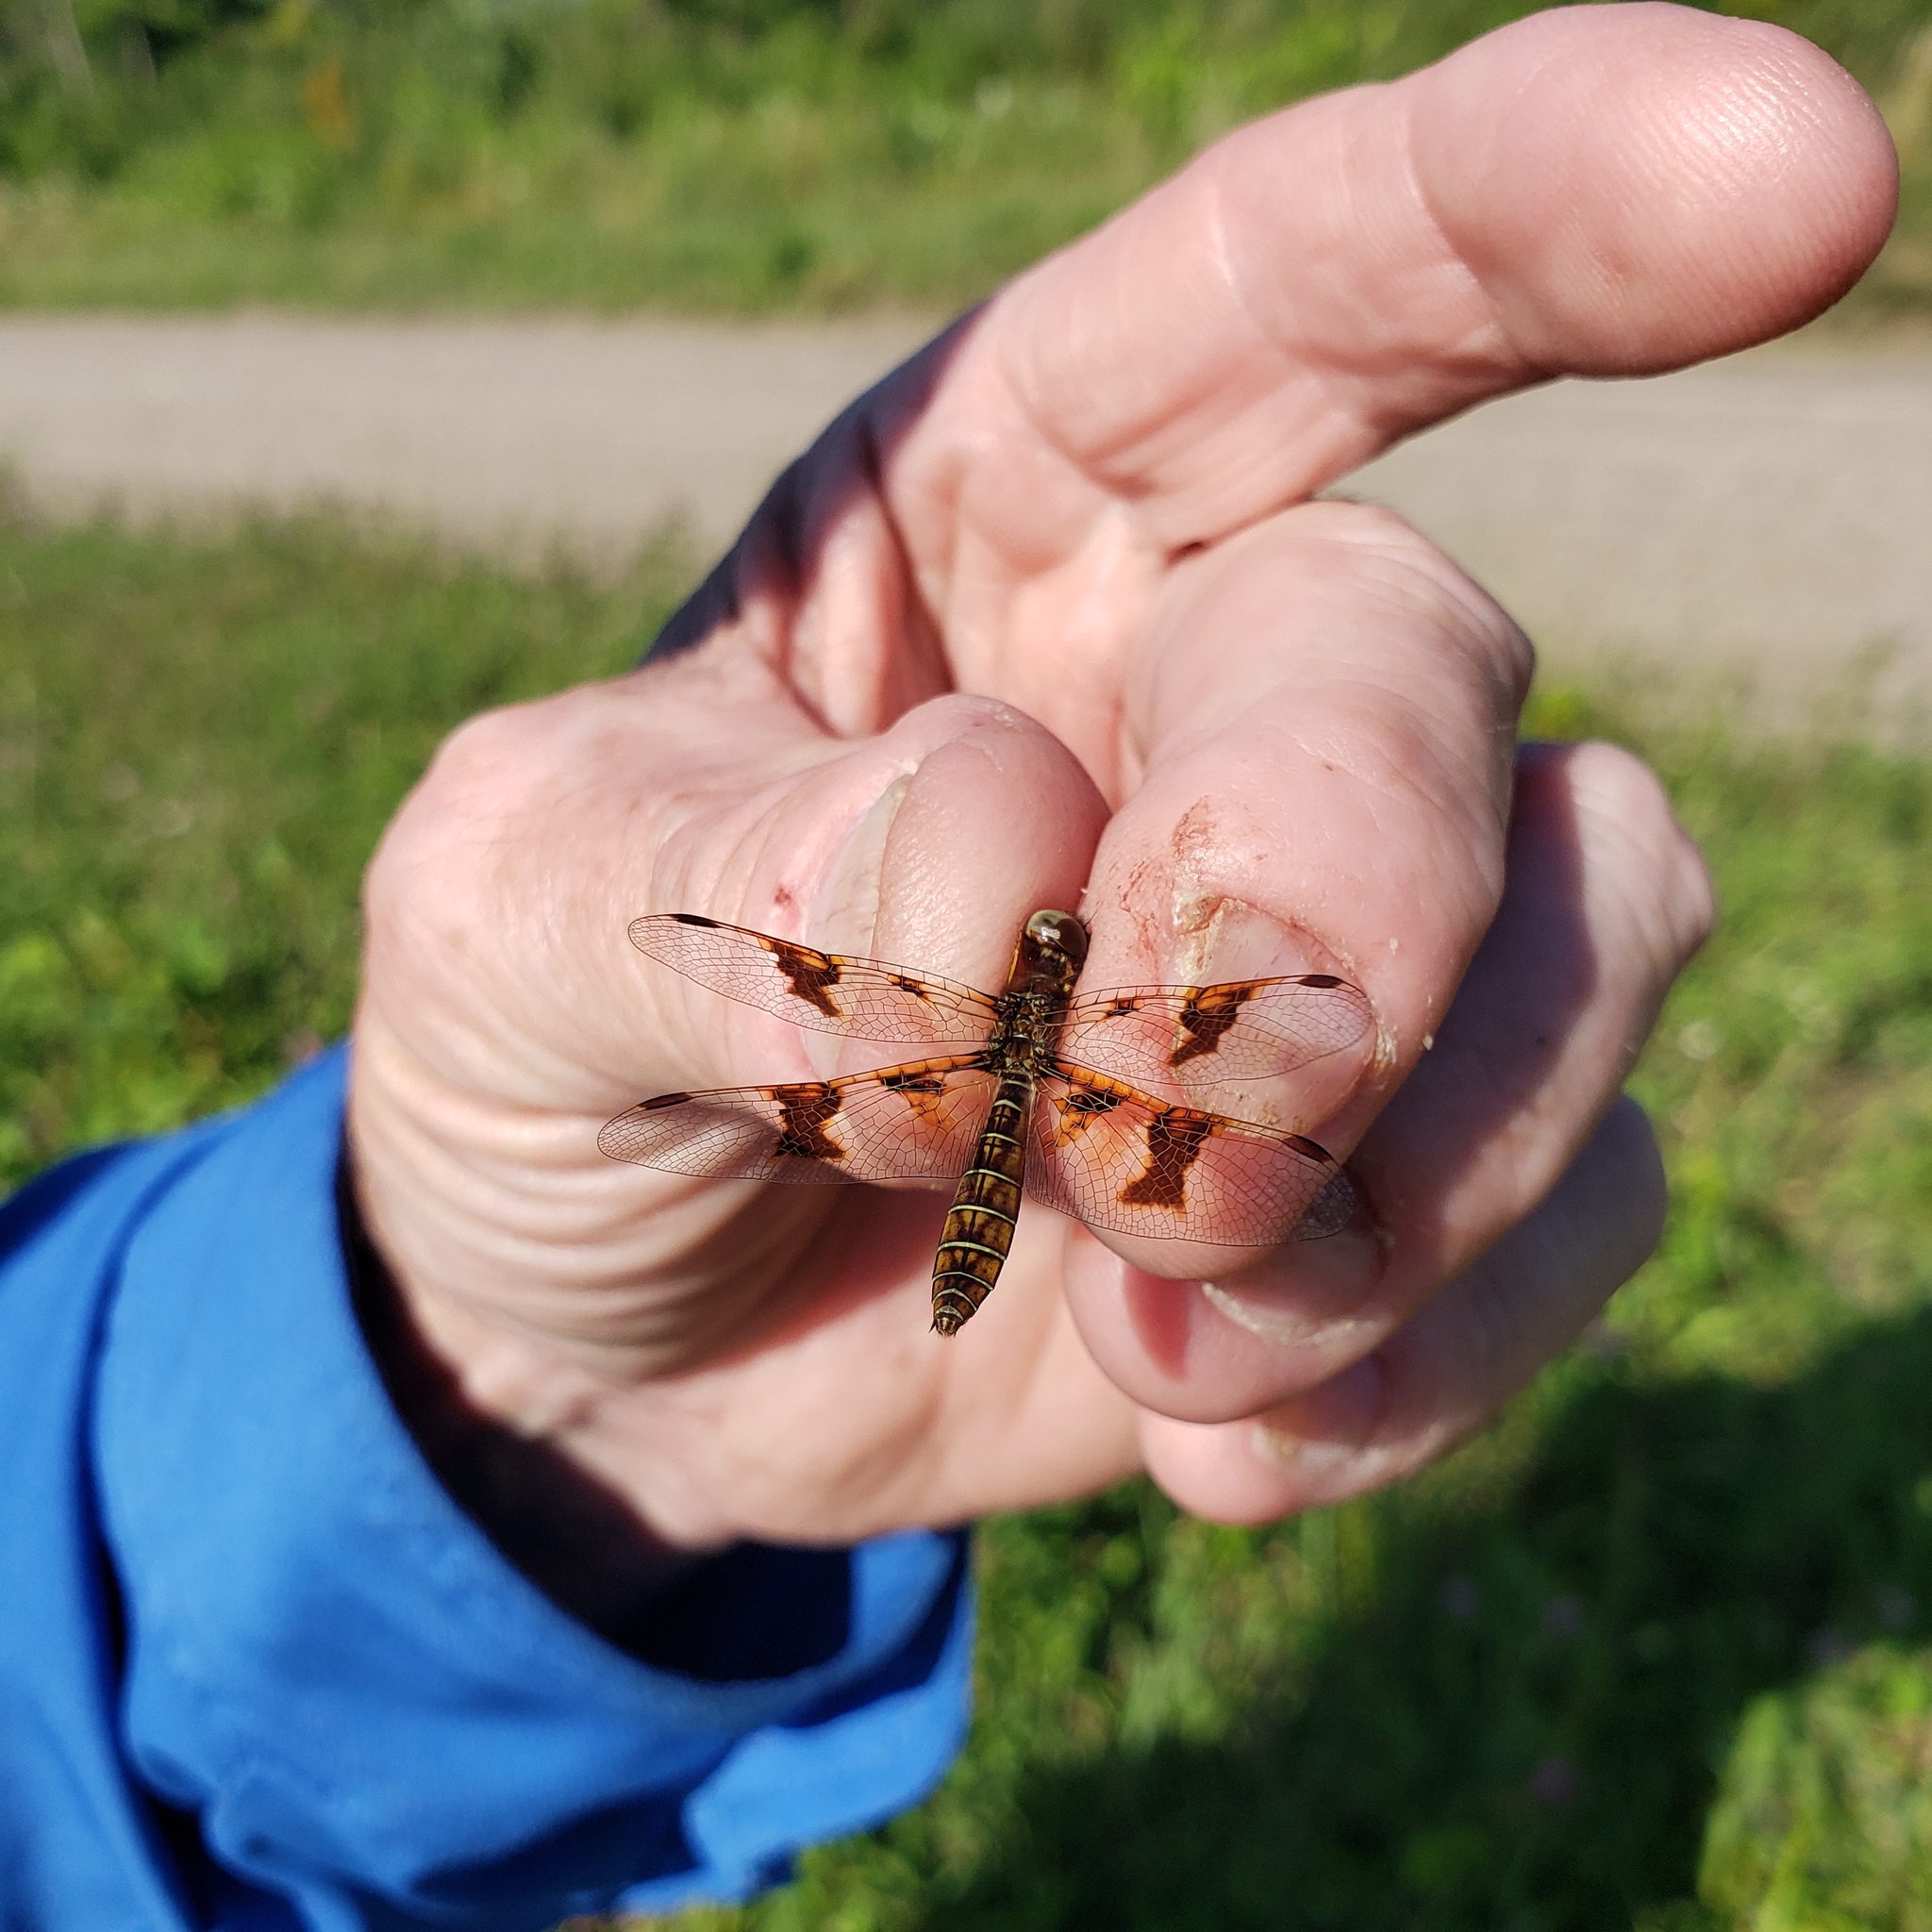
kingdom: Animalia
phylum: Arthropoda
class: Insecta
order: Odonata
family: Libellulidae
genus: Perithemis
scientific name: Perithemis tenera
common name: Eastern amberwing
